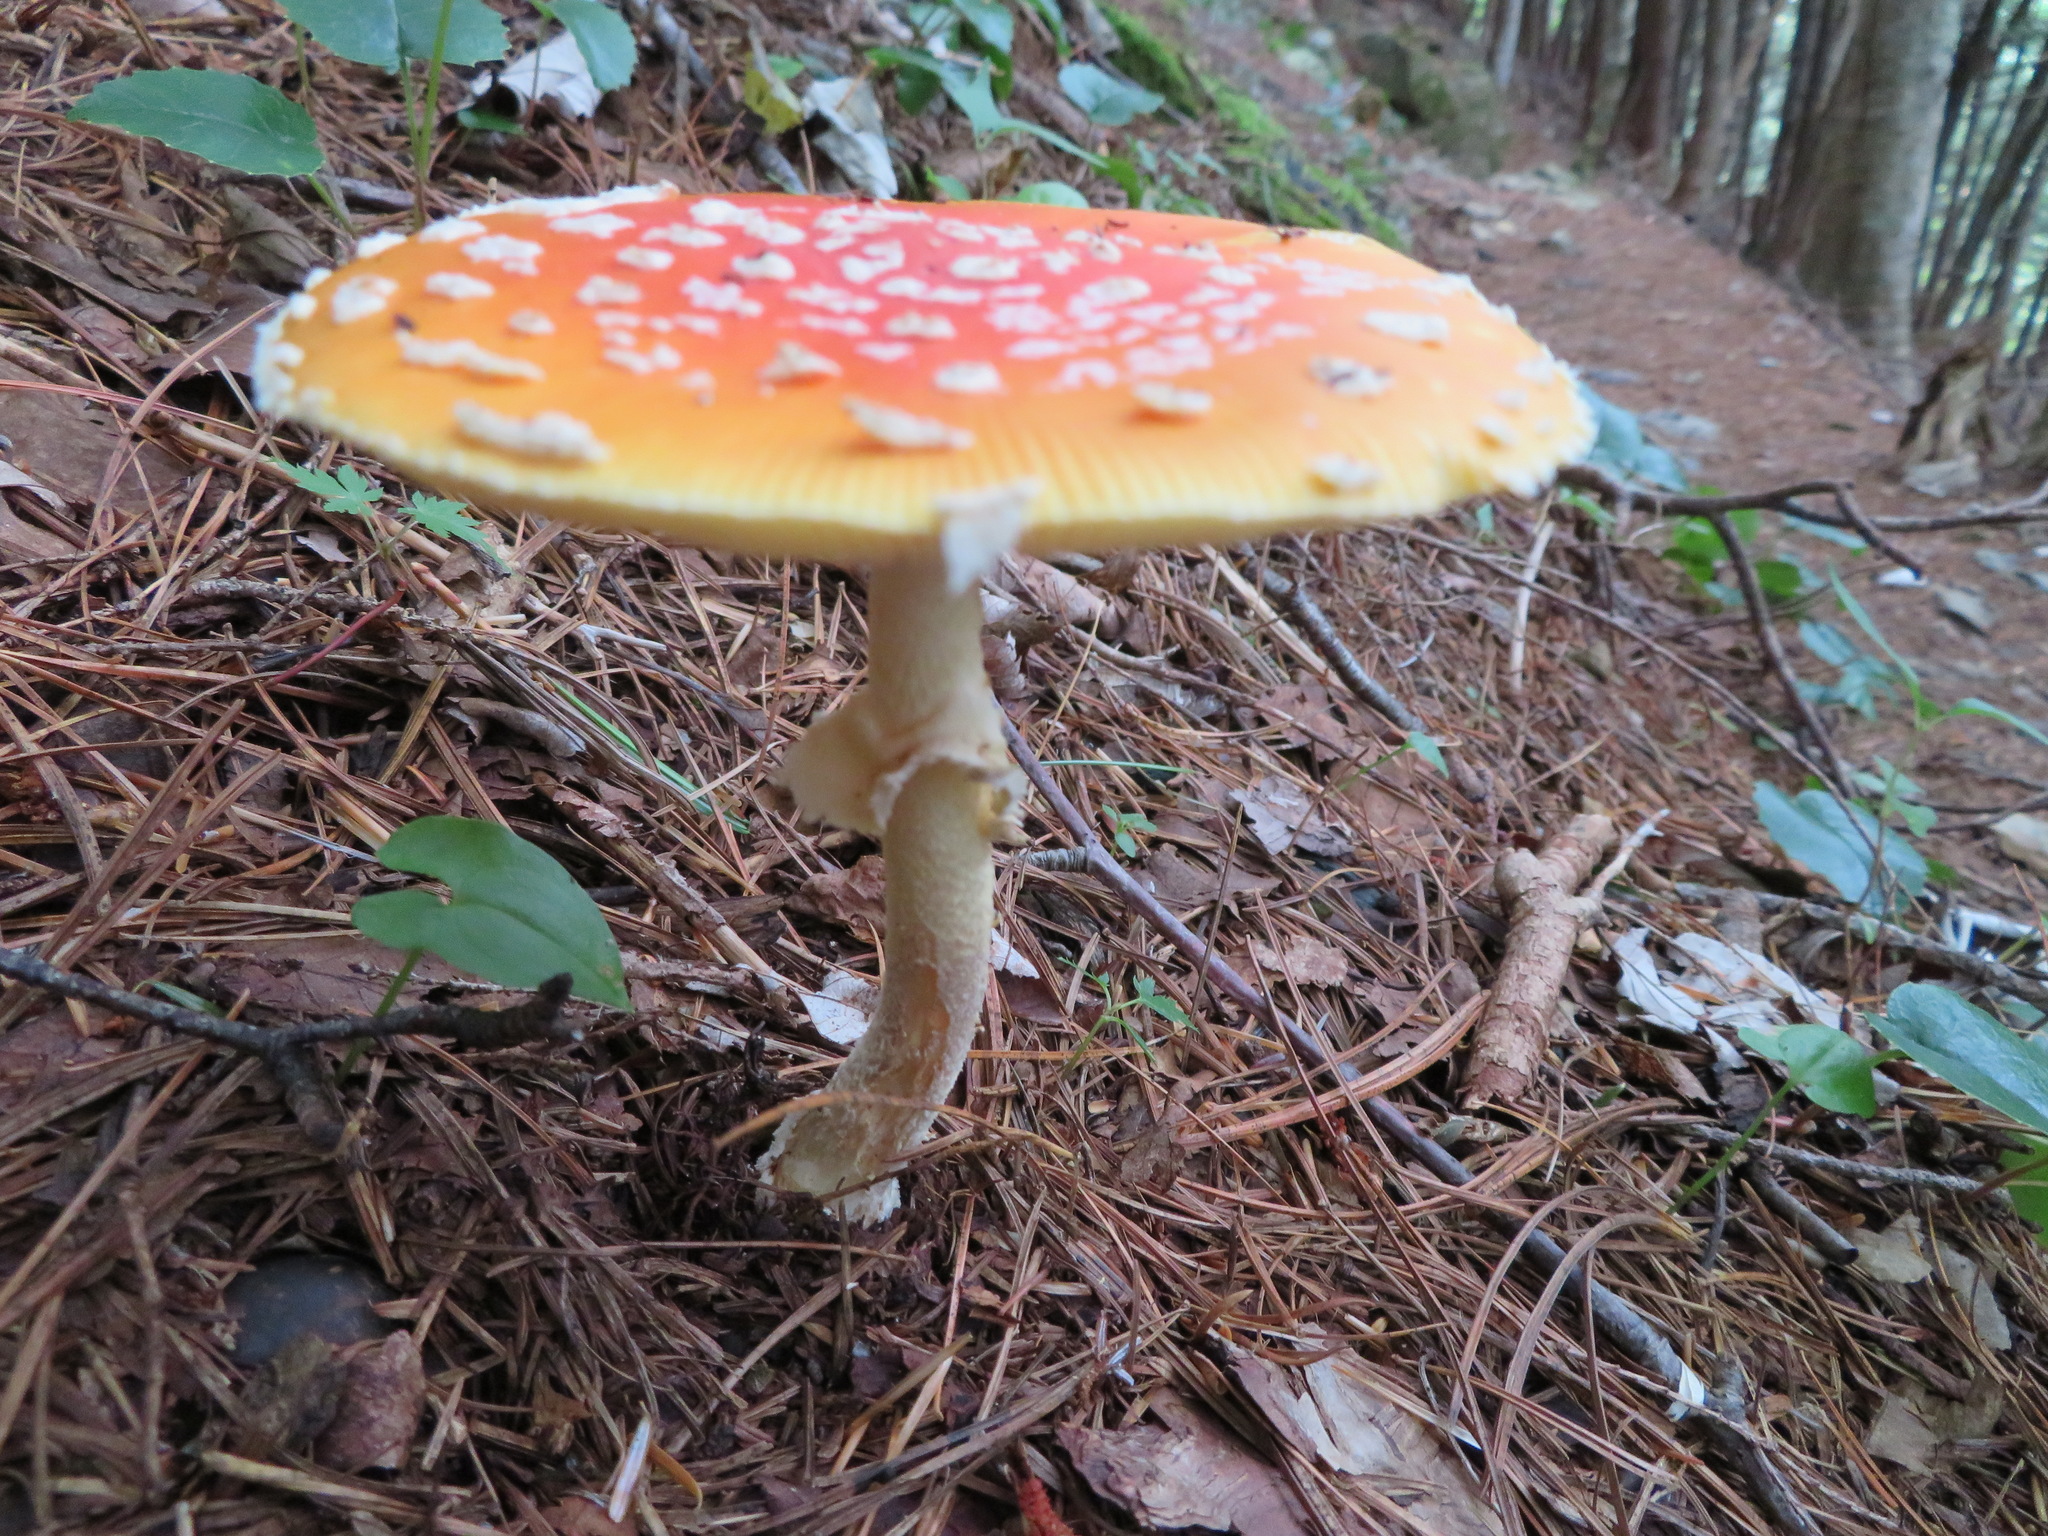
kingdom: Fungi
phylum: Basidiomycota
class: Agaricomycetes
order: Agaricales
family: Amanitaceae
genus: Amanita
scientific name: Amanita muscaria
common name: Fly agaric
